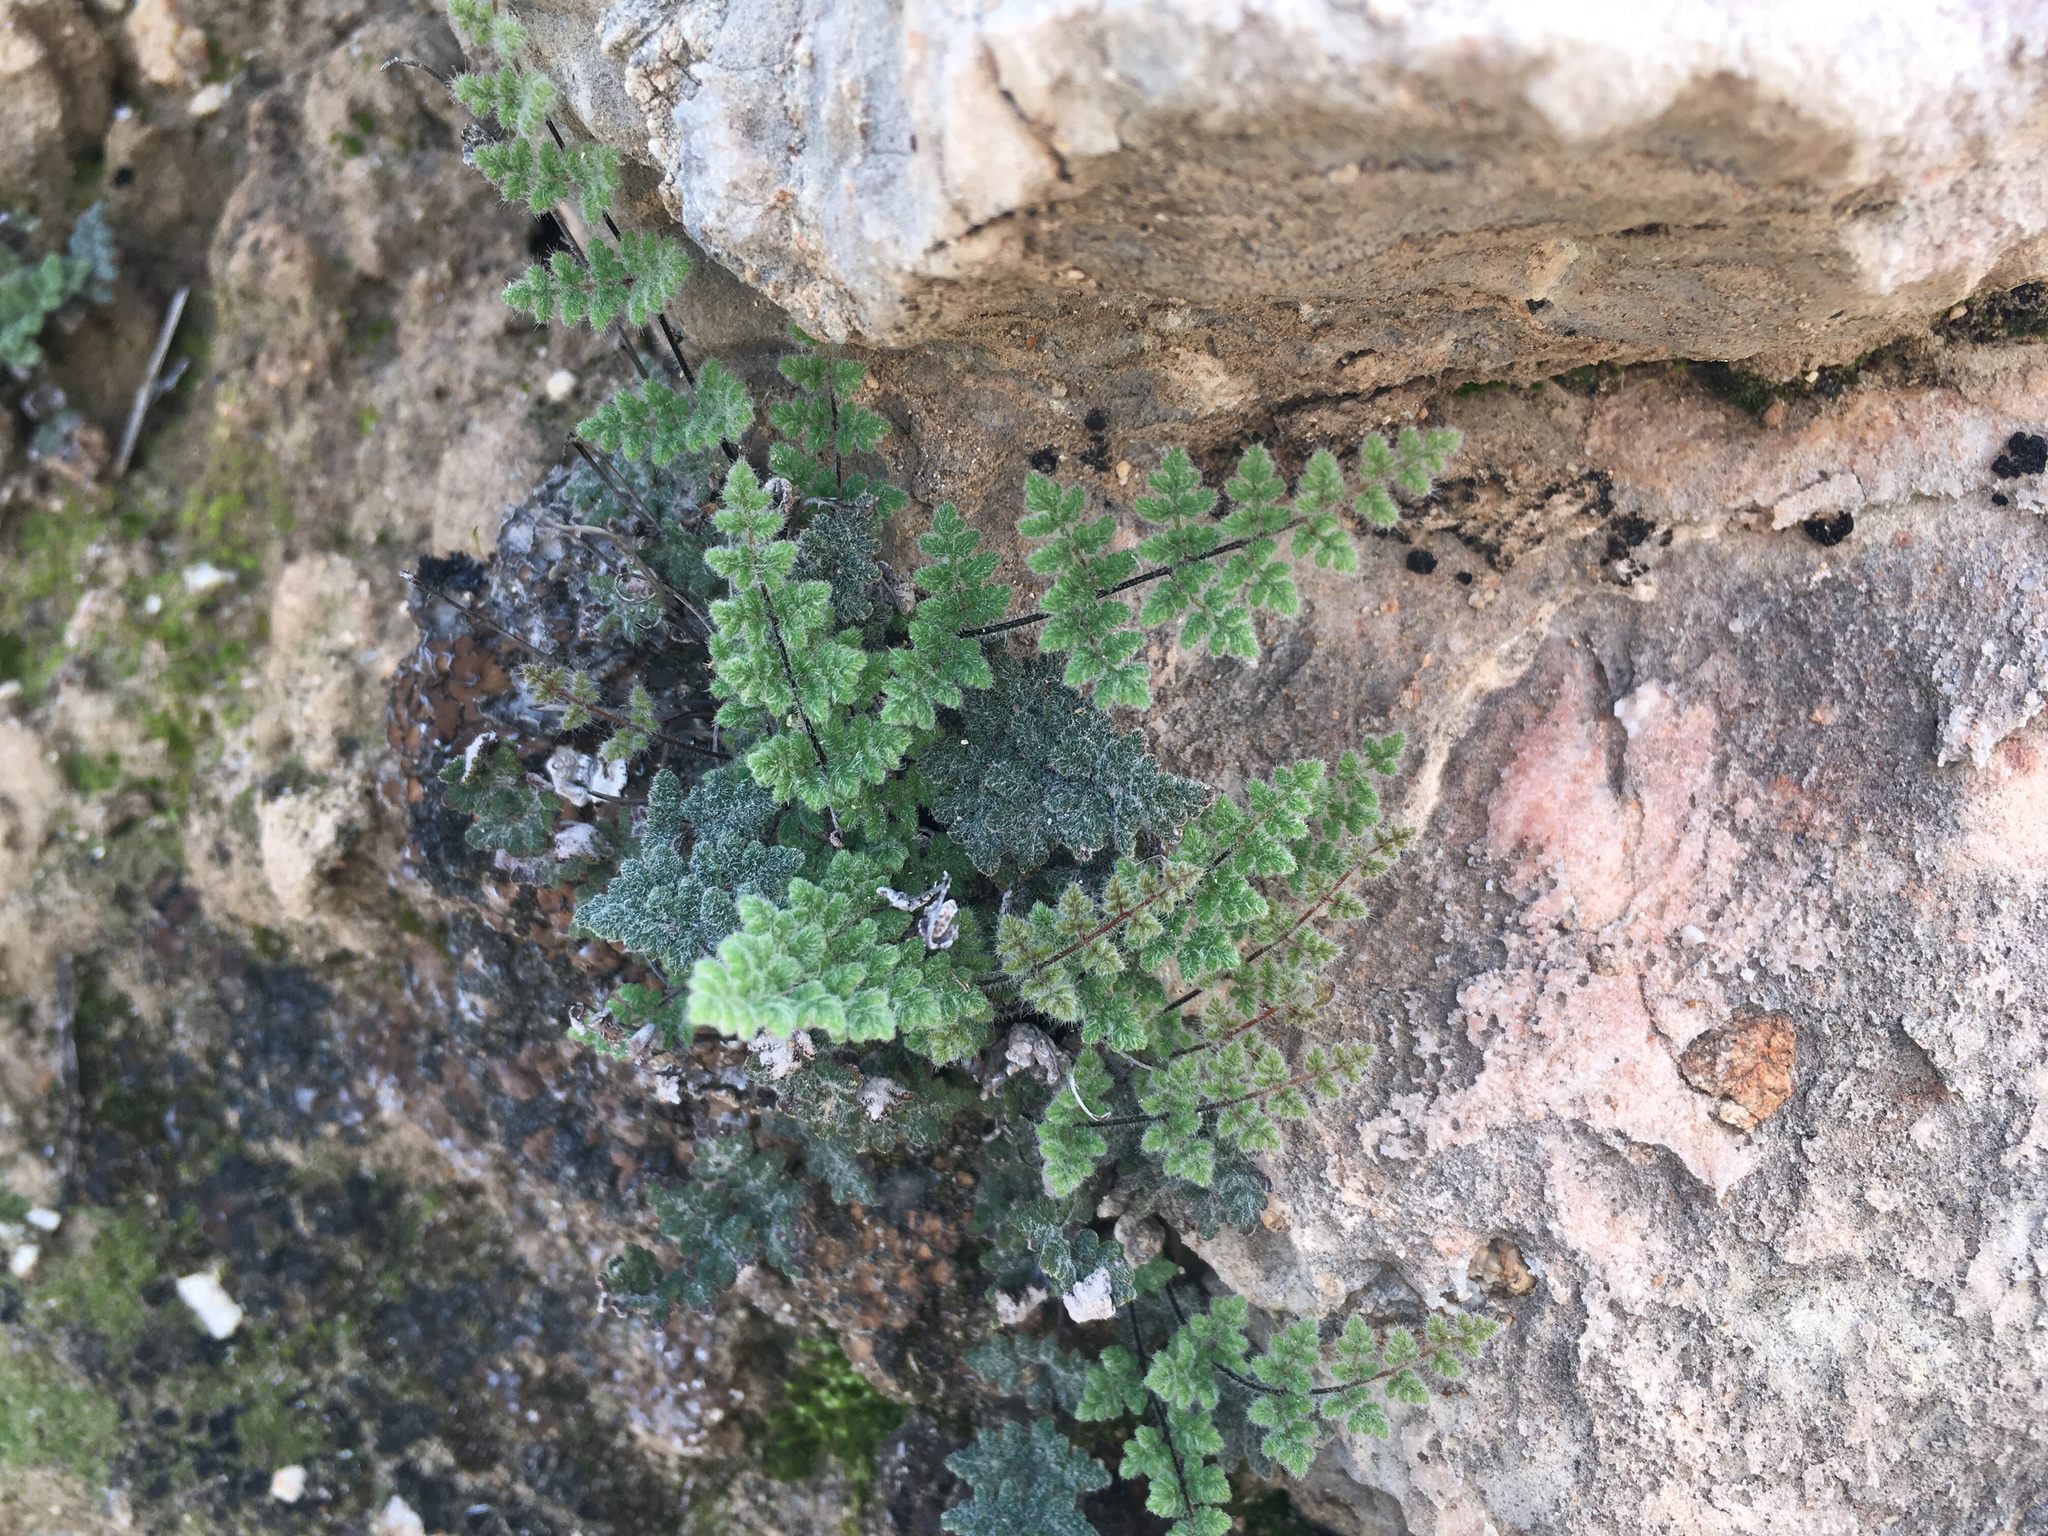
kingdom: Plantae
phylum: Tracheophyta
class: Polypodiopsida
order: Polypodiales
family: Pteridaceae
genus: Myriopteris
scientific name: Myriopteris parryi
